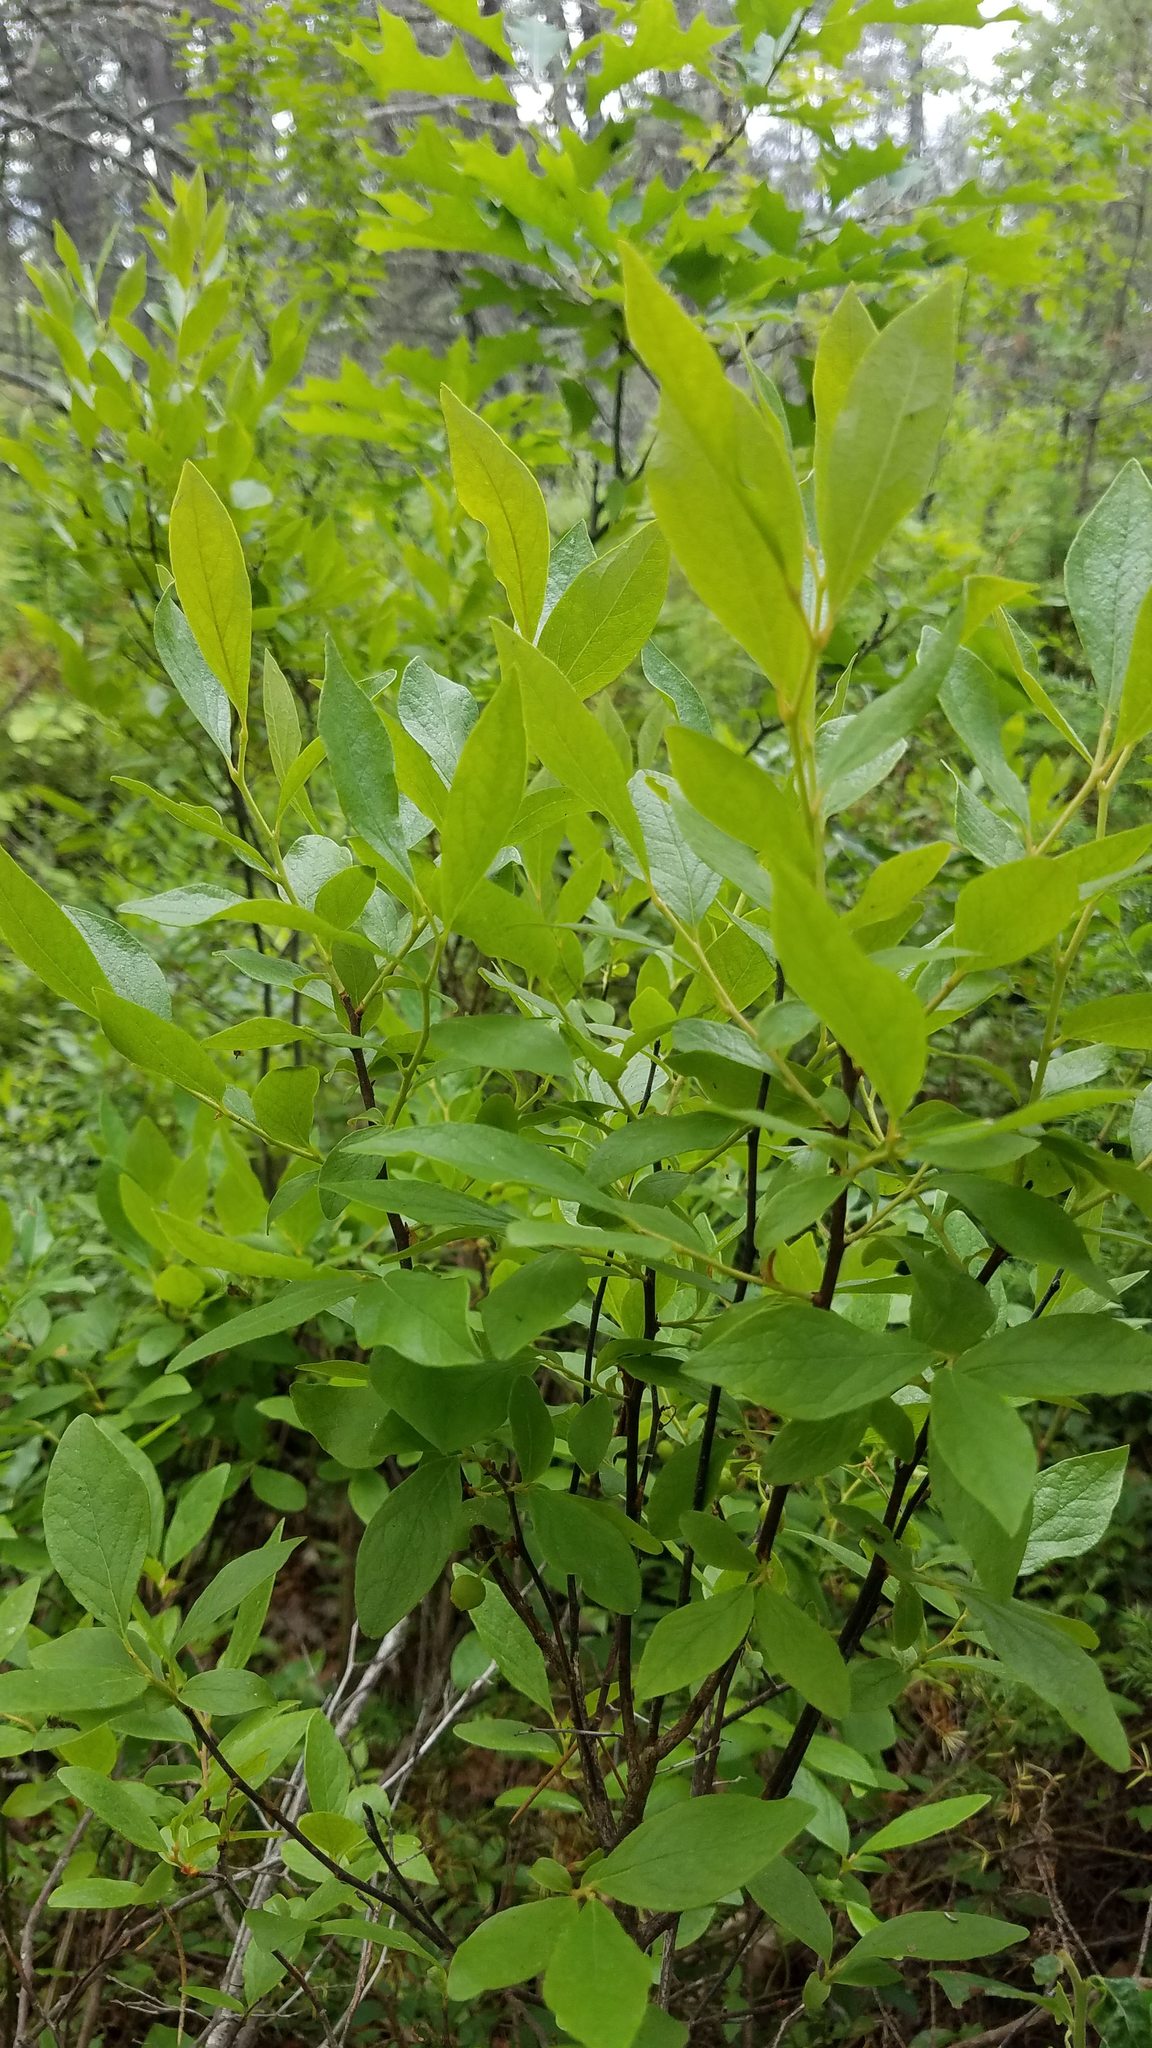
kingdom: Plantae
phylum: Tracheophyta
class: Magnoliopsida
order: Ericales
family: Ericaceae
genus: Gaylussacia
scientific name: Gaylussacia baccata
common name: Black huckleberry
